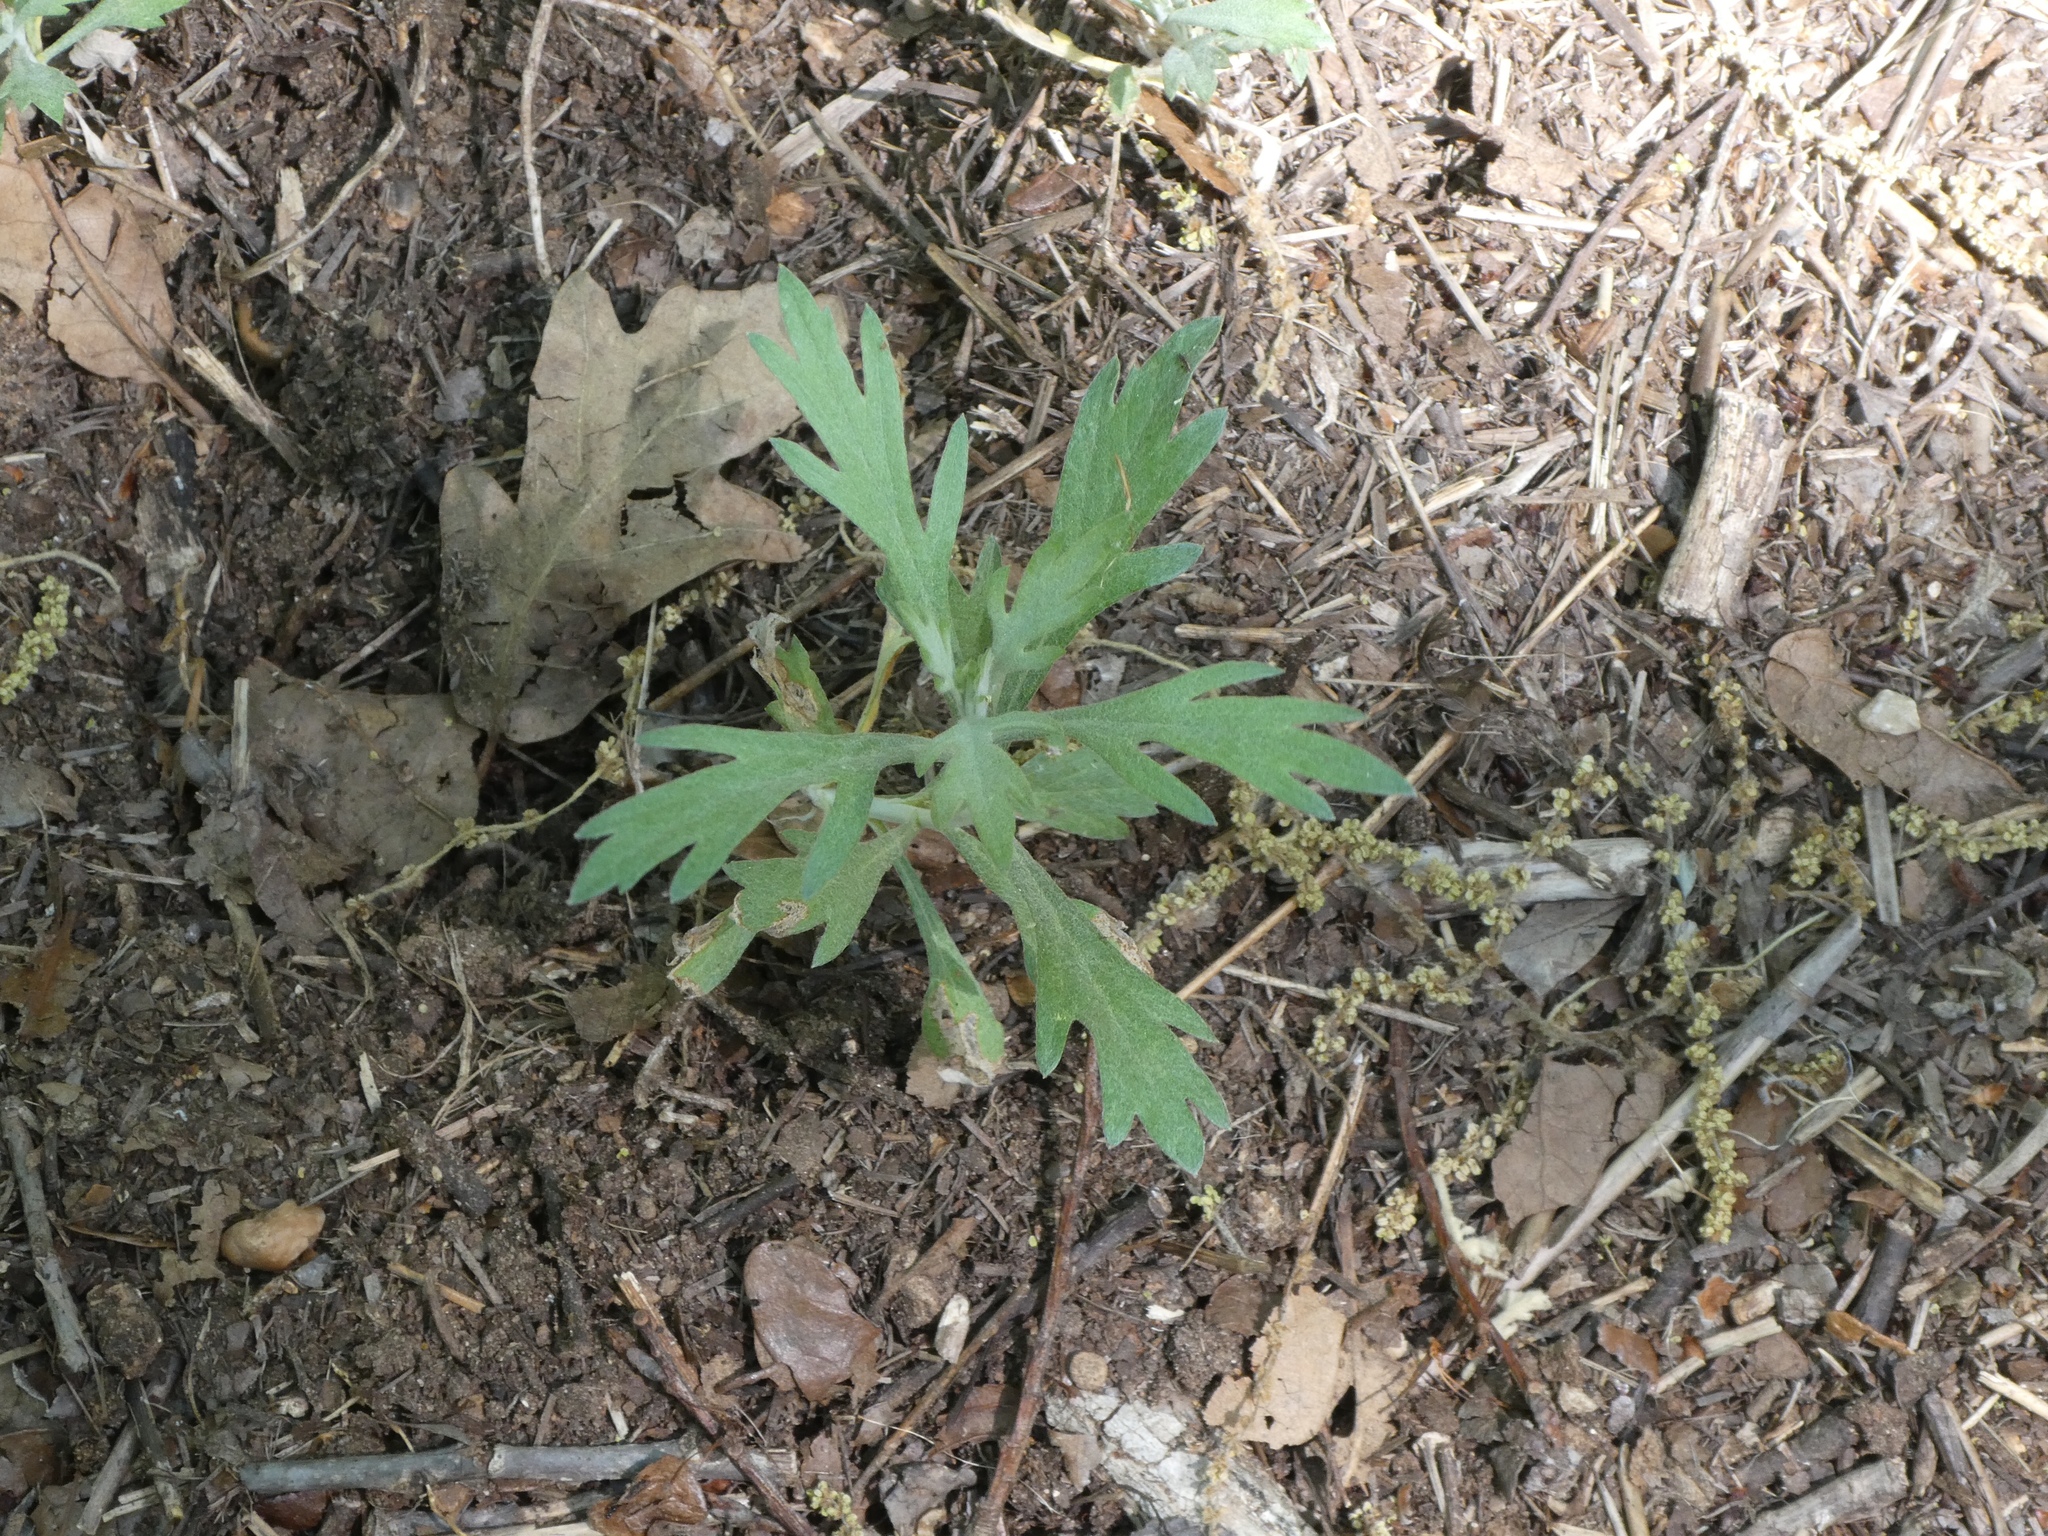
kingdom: Plantae
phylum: Tracheophyta
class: Magnoliopsida
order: Asterales
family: Asteraceae
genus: Ambrosia
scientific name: Ambrosia psilostachya
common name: Perennial ragweed
